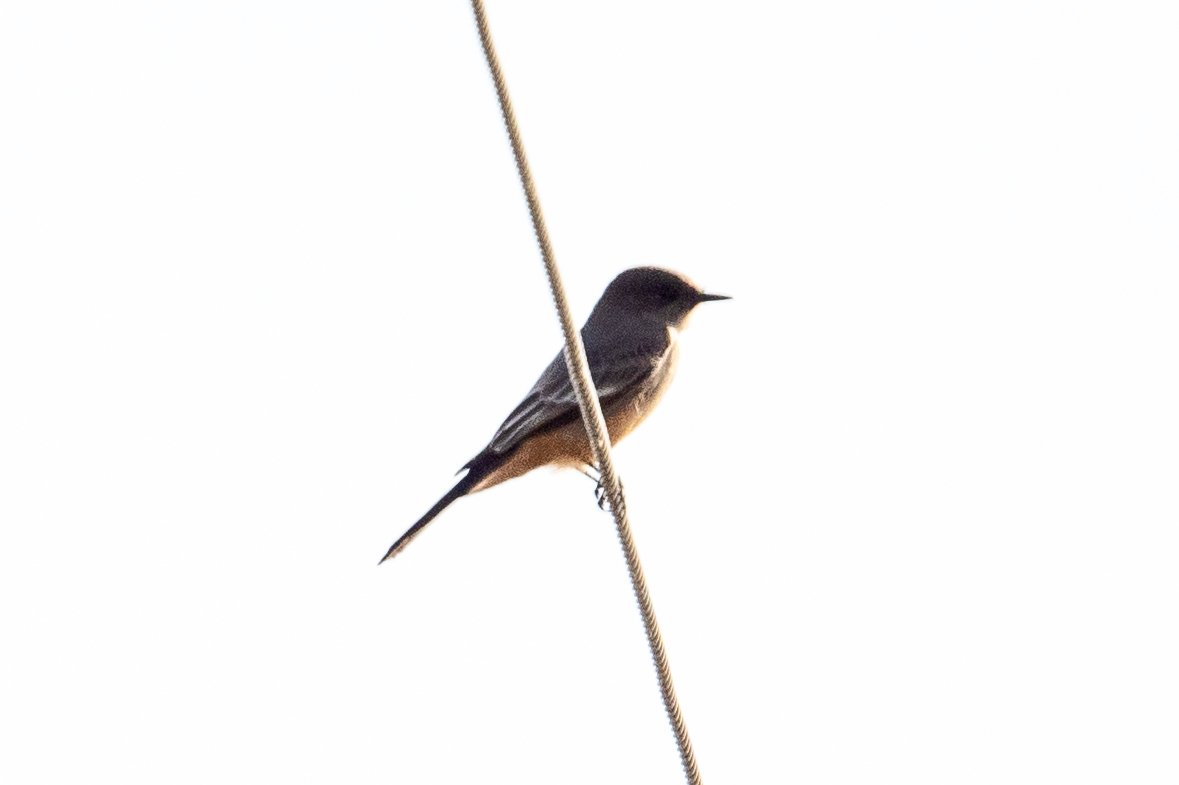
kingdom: Animalia
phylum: Chordata
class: Aves
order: Passeriformes
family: Tyrannidae
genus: Sayornis
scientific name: Sayornis saya
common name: Say's phoebe
